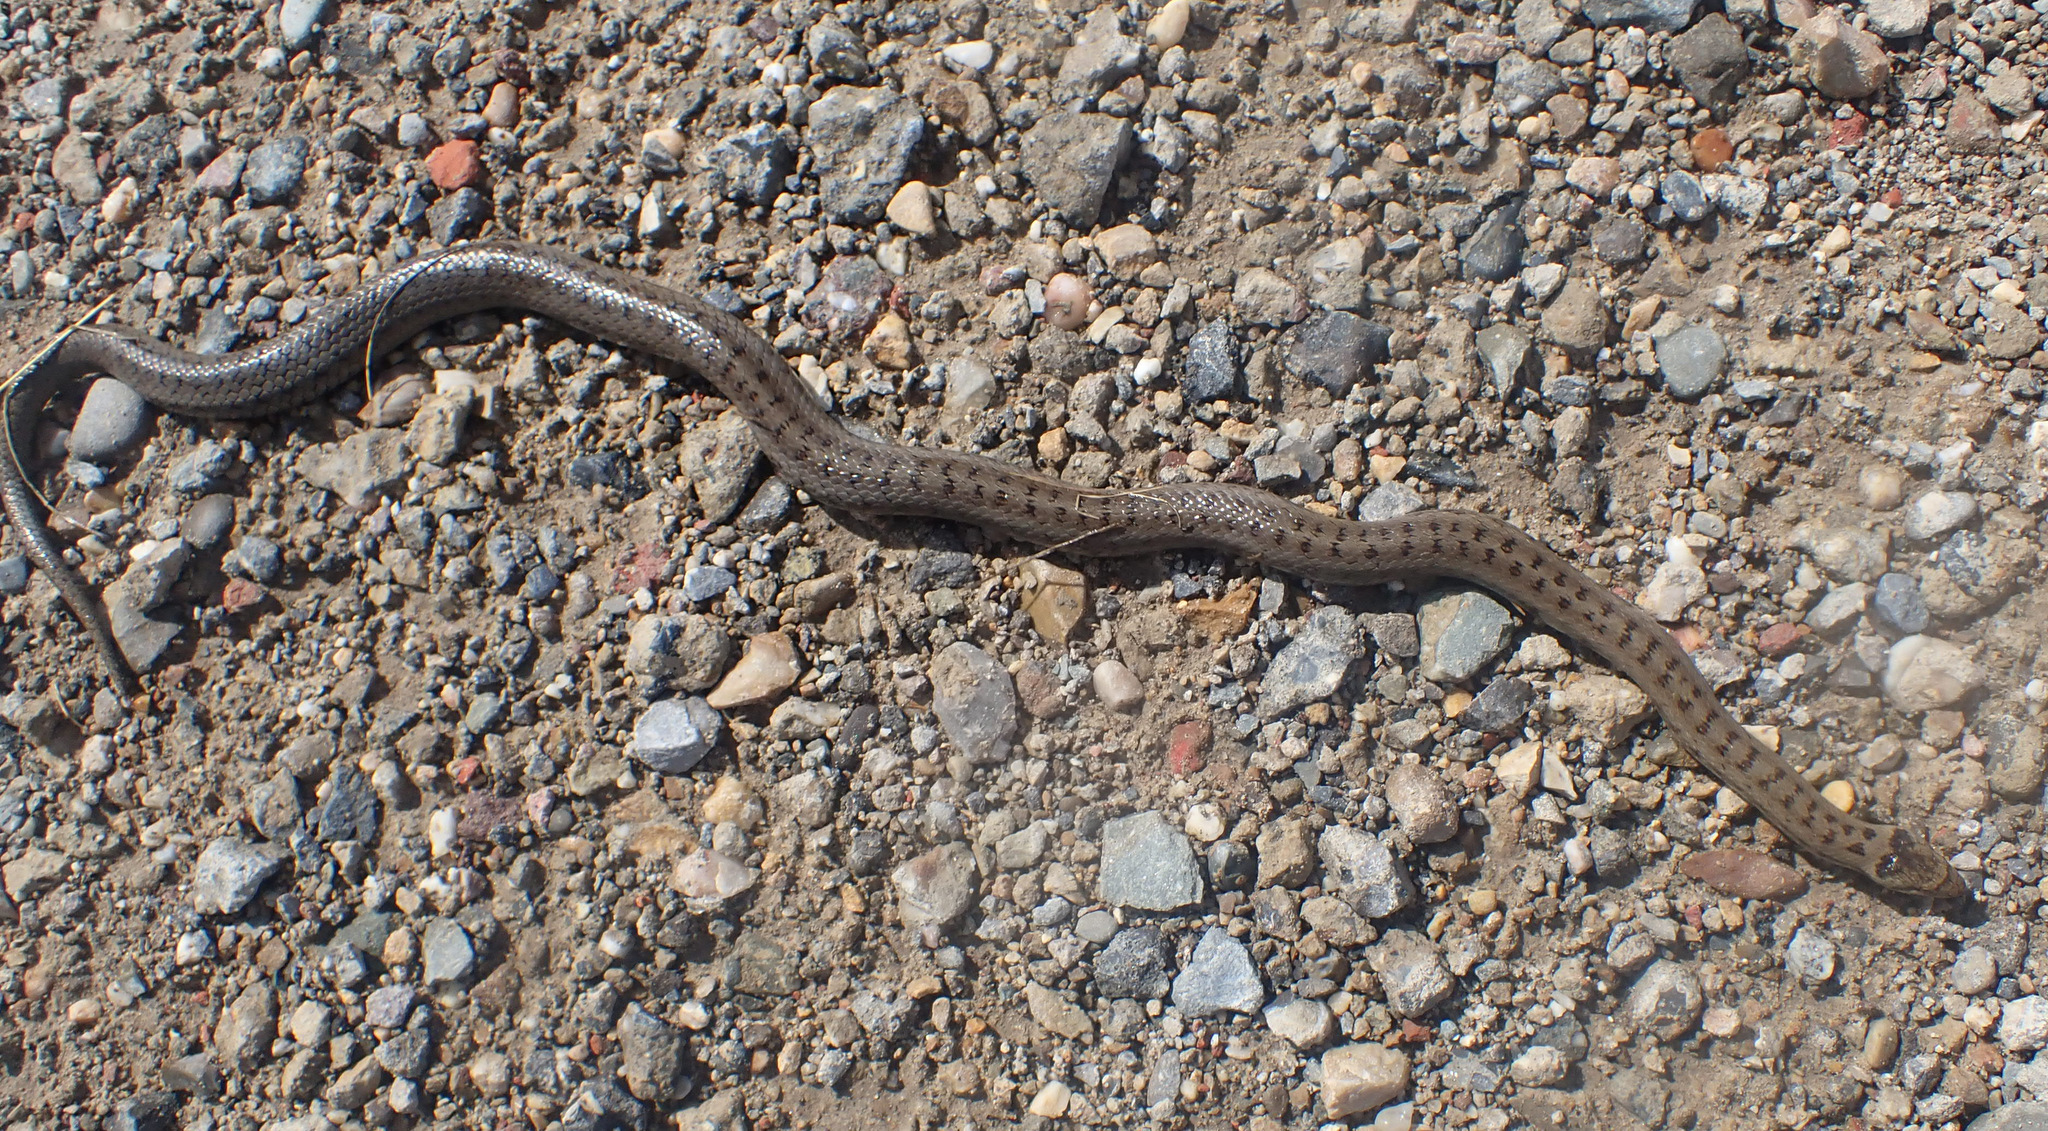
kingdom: Animalia
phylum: Chordata
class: Squamata
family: Colubridae
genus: Coronella
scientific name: Coronella austriaca
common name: Smooth snake
